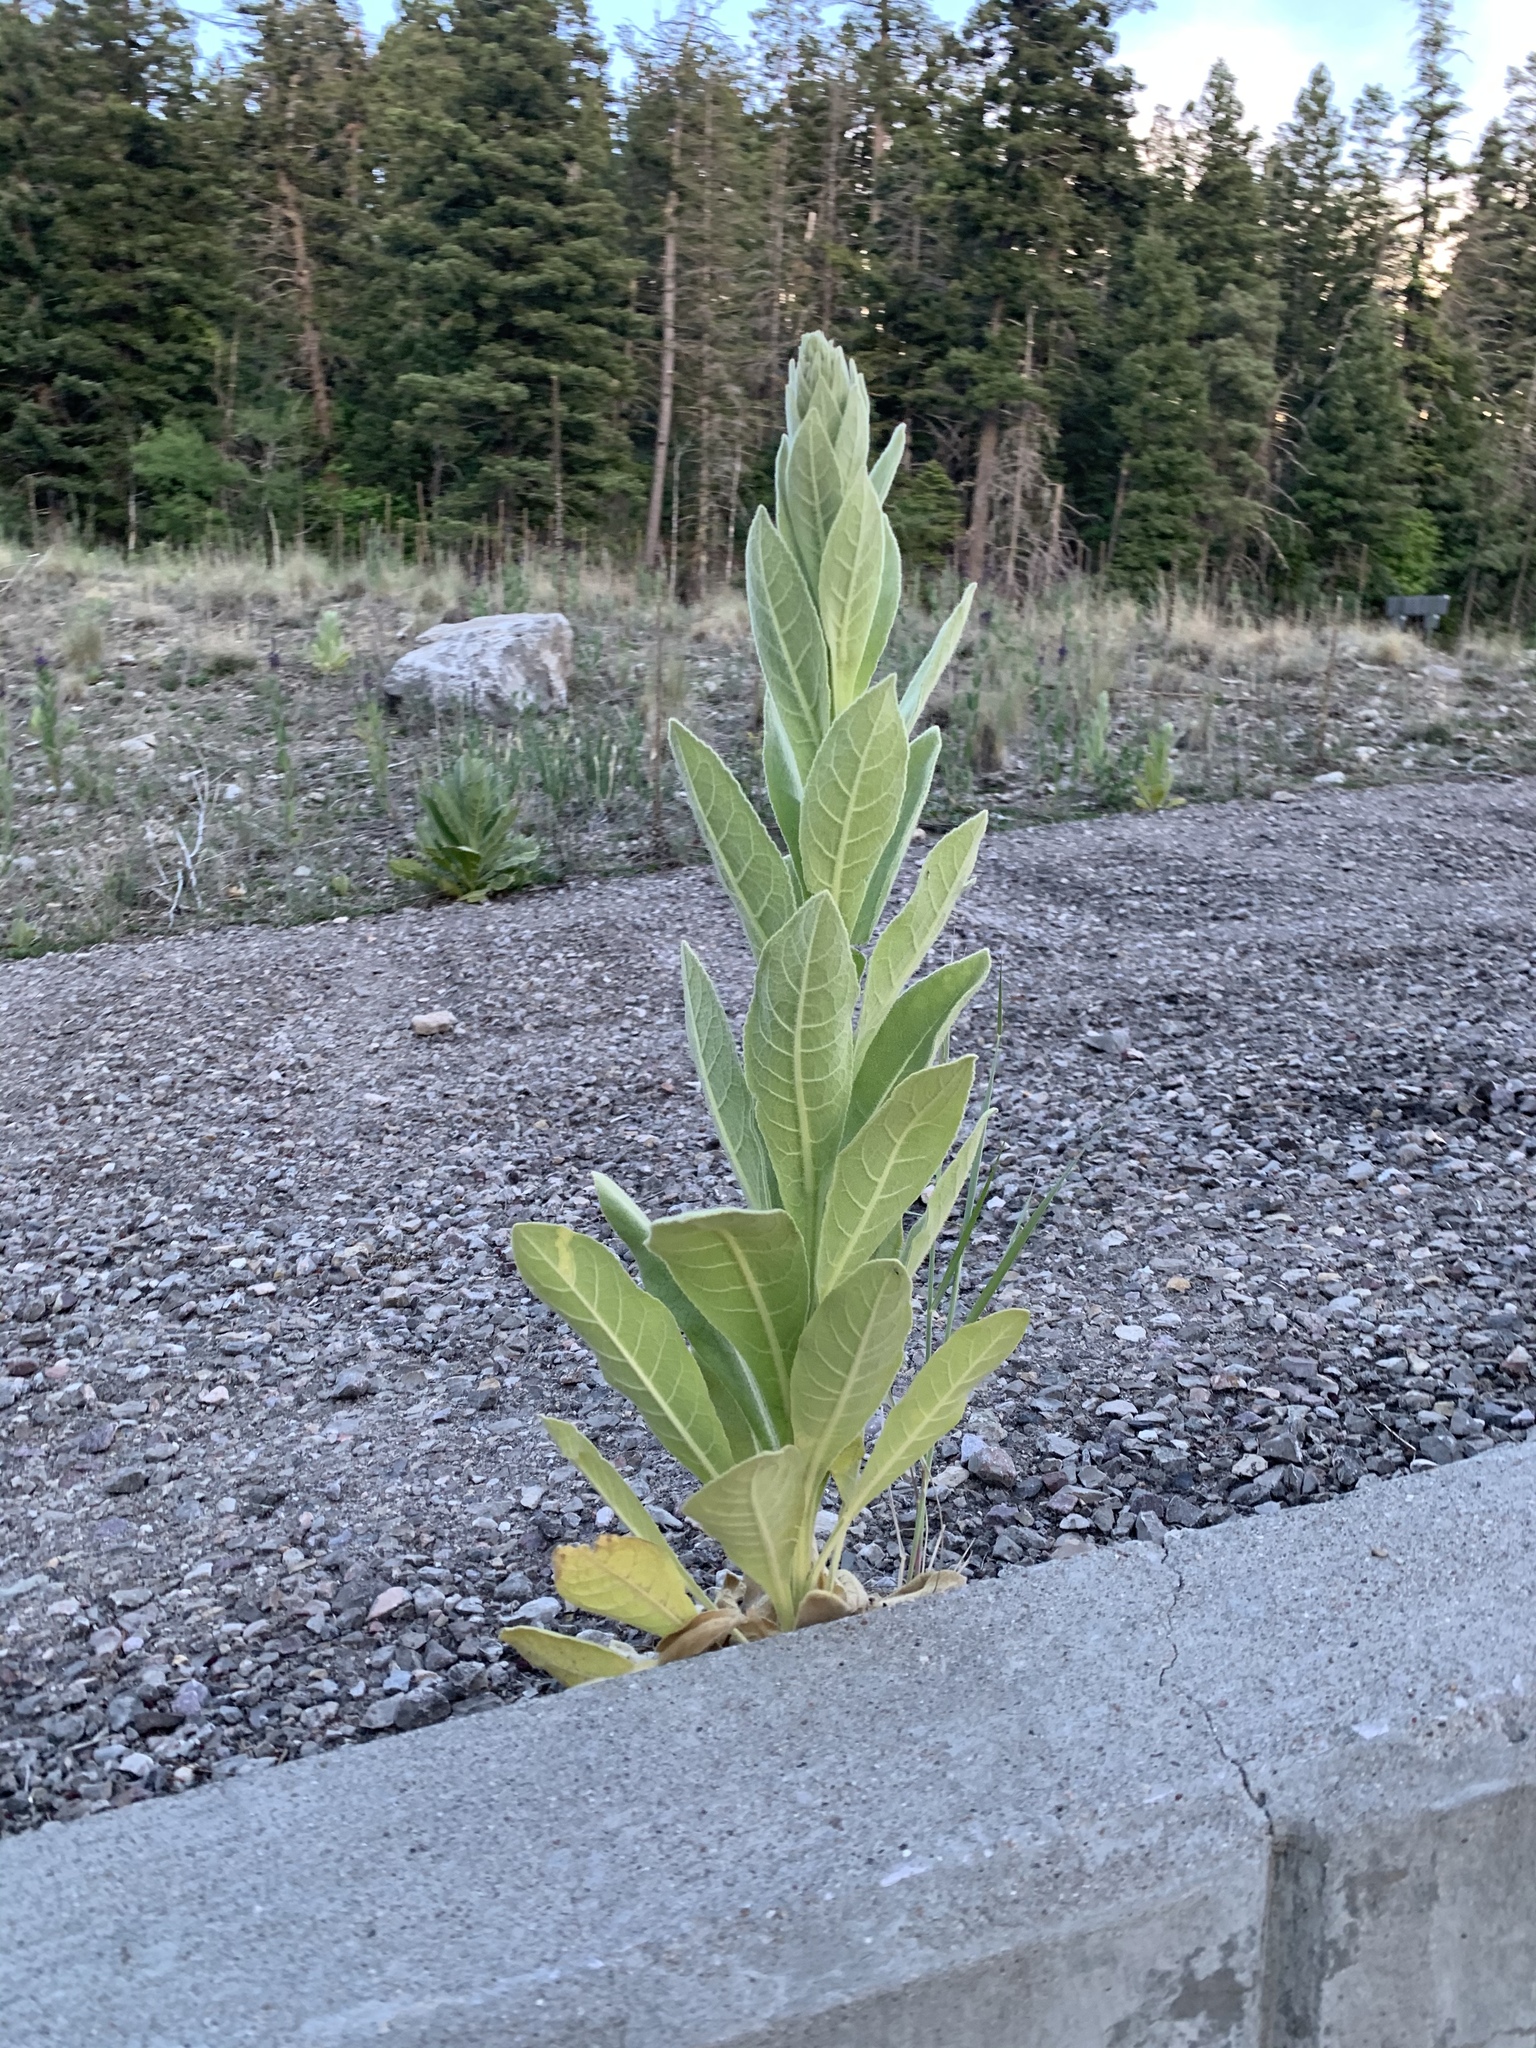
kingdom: Plantae
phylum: Tracheophyta
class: Magnoliopsida
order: Lamiales
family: Scrophulariaceae
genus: Verbascum
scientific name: Verbascum thapsus
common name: Common mullein
